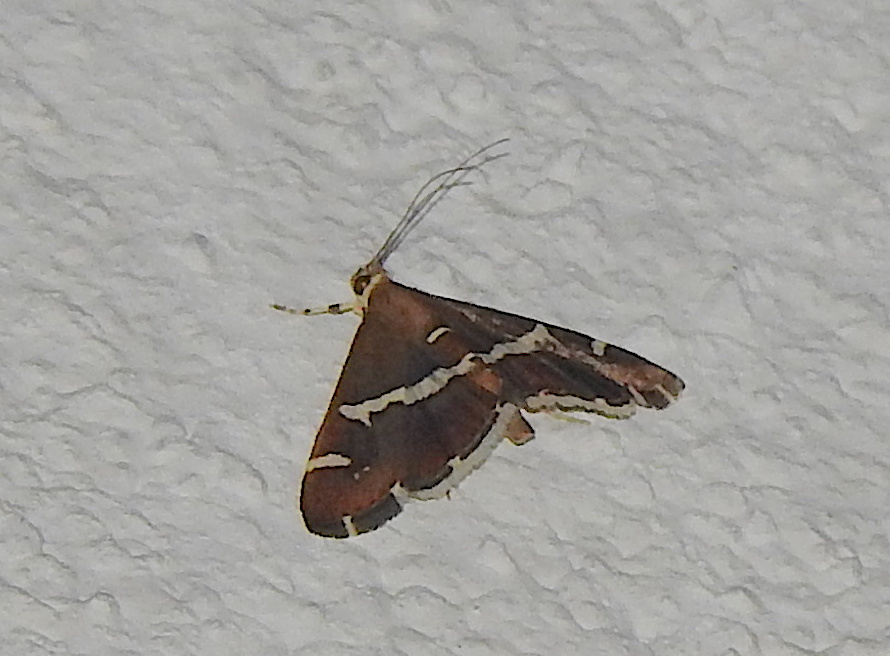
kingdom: Animalia
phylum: Arthropoda
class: Insecta
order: Lepidoptera
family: Crambidae
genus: Spoladea
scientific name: Spoladea recurvalis
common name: Beet webworm moth
